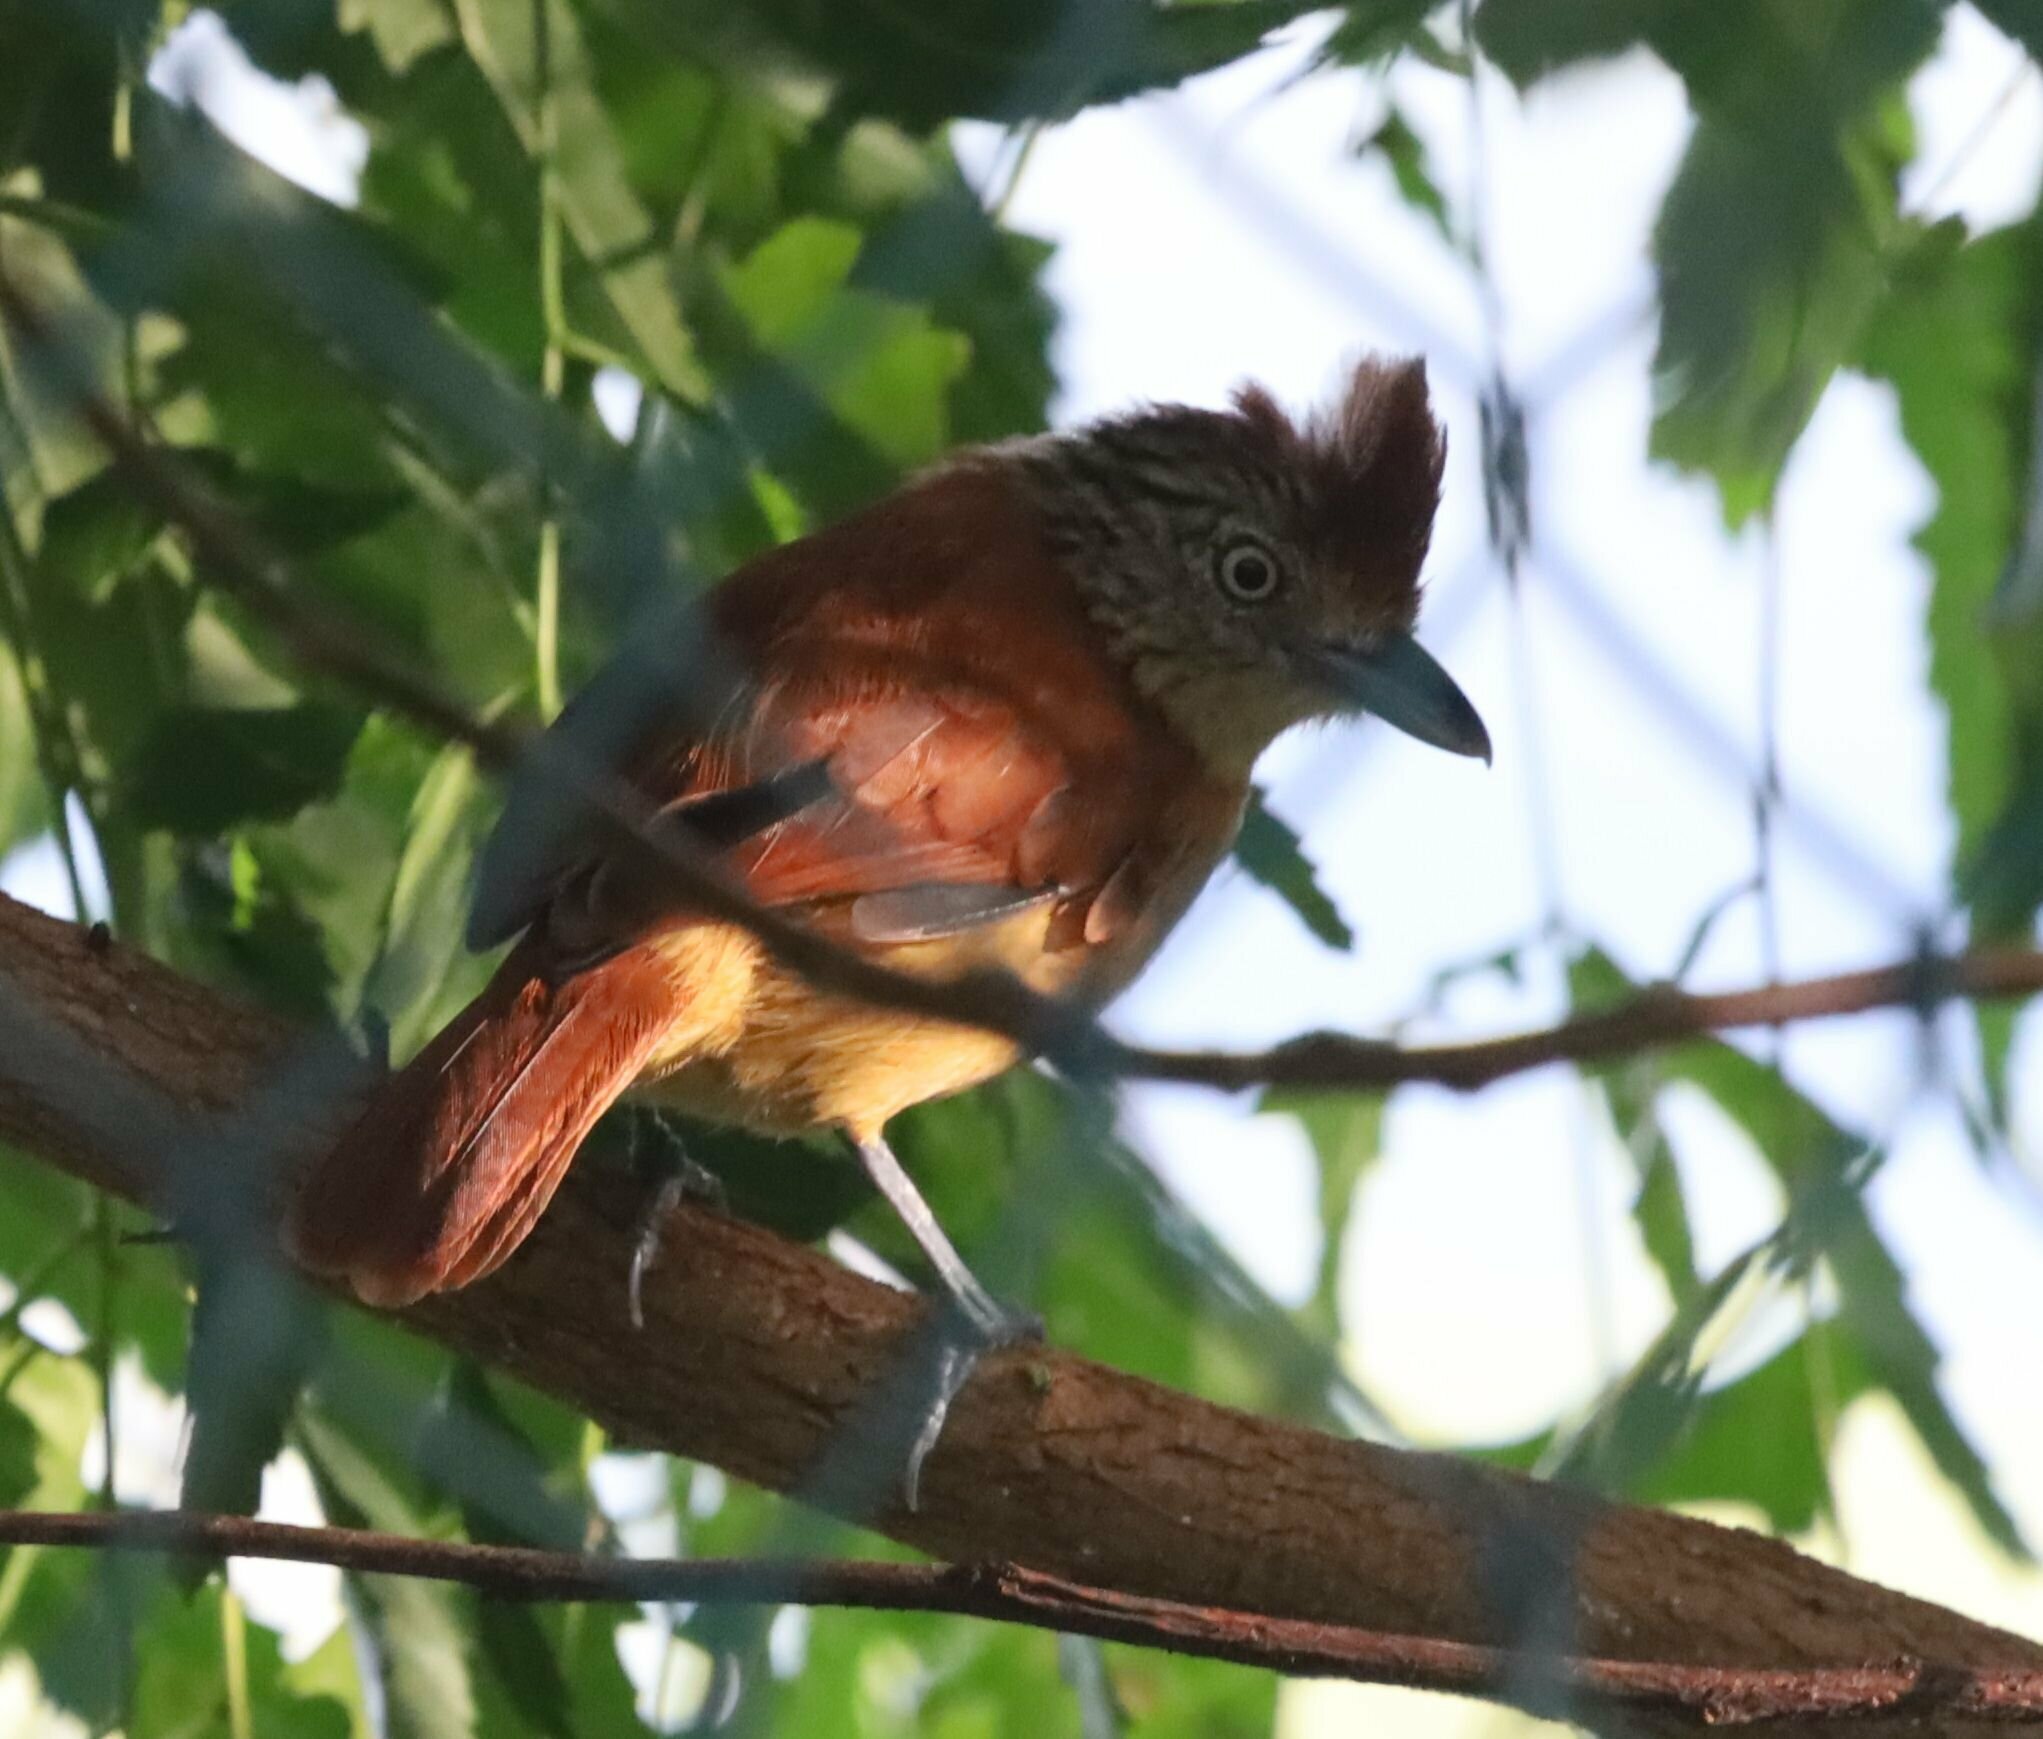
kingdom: Animalia
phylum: Chordata
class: Aves
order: Passeriformes
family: Thamnophilidae
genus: Thamnophilus
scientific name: Thamnophilus doliatus
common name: Barred antshrike
